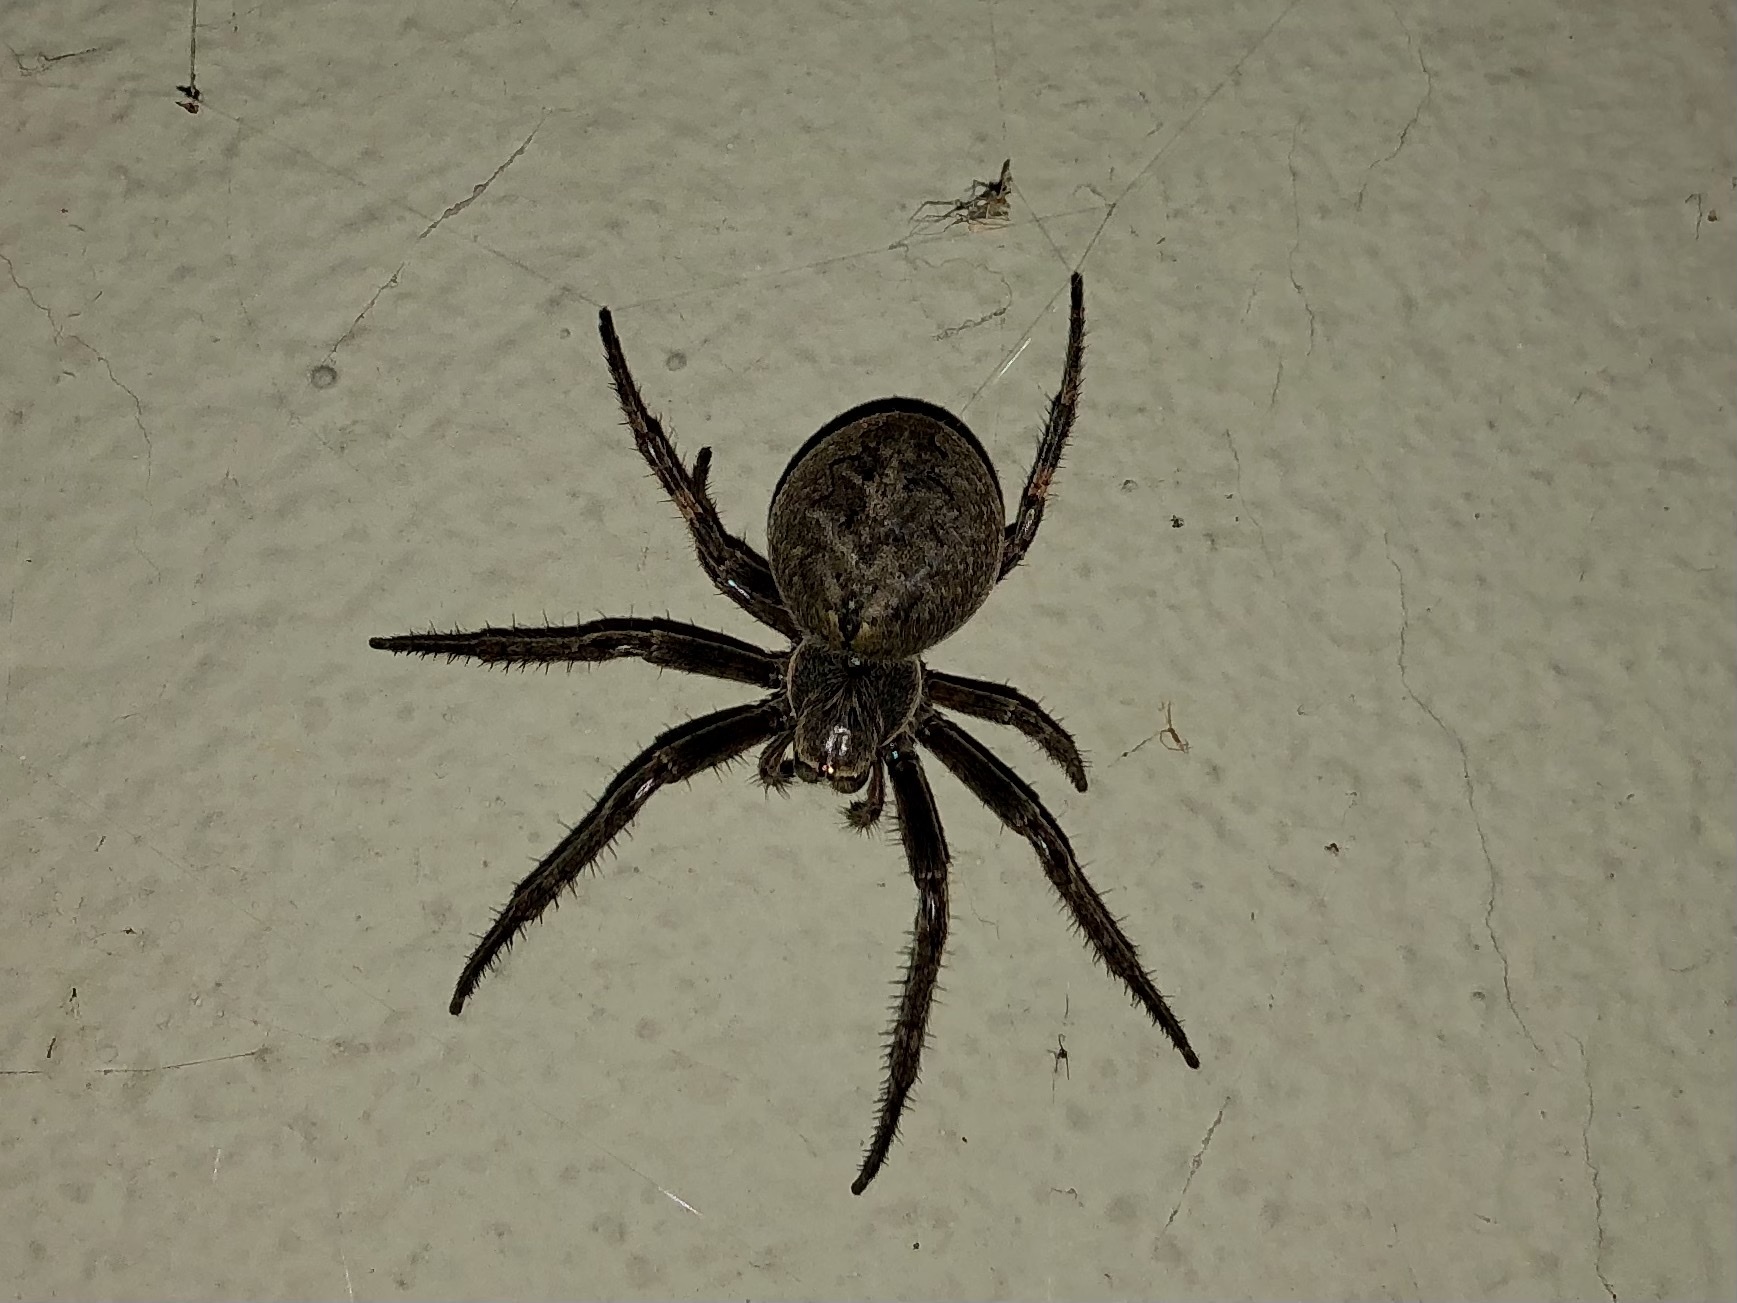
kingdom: Animalia
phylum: Arthropoda
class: Arachnida
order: Araneae
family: Araneidae
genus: Larinioides
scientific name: Larinioides ixobolus
